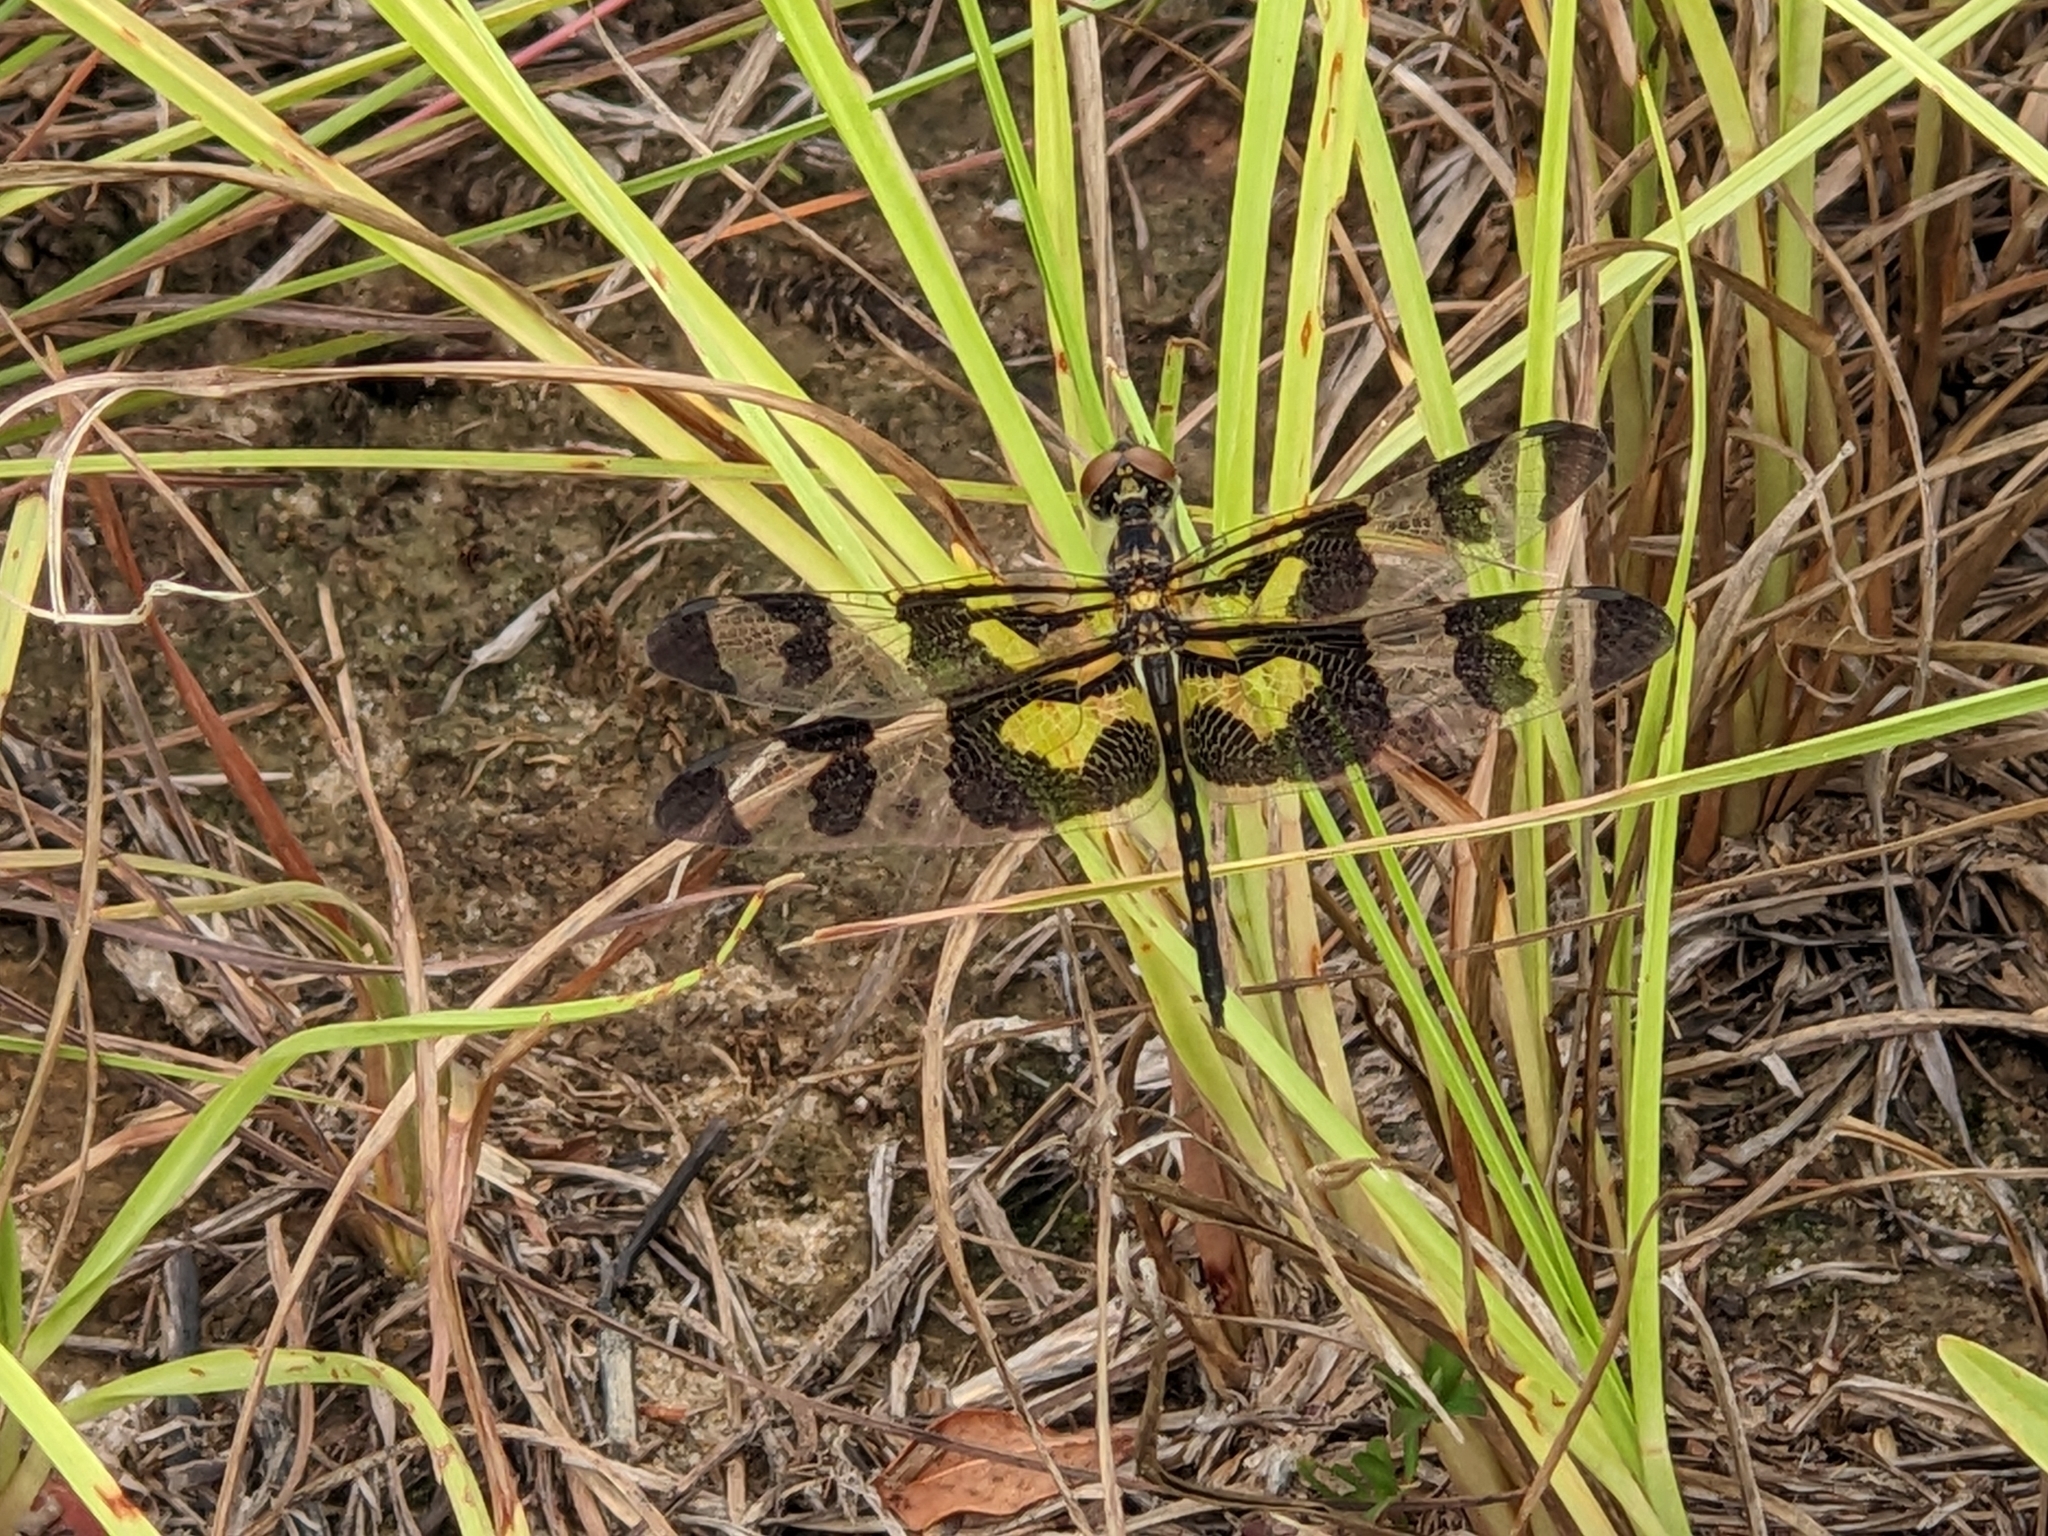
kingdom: Animalia
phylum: Arthropoda
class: Insecta
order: Odonata
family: Libellulidae
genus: Celithemis
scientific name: Celithemis fasciata
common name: Banded pennant
